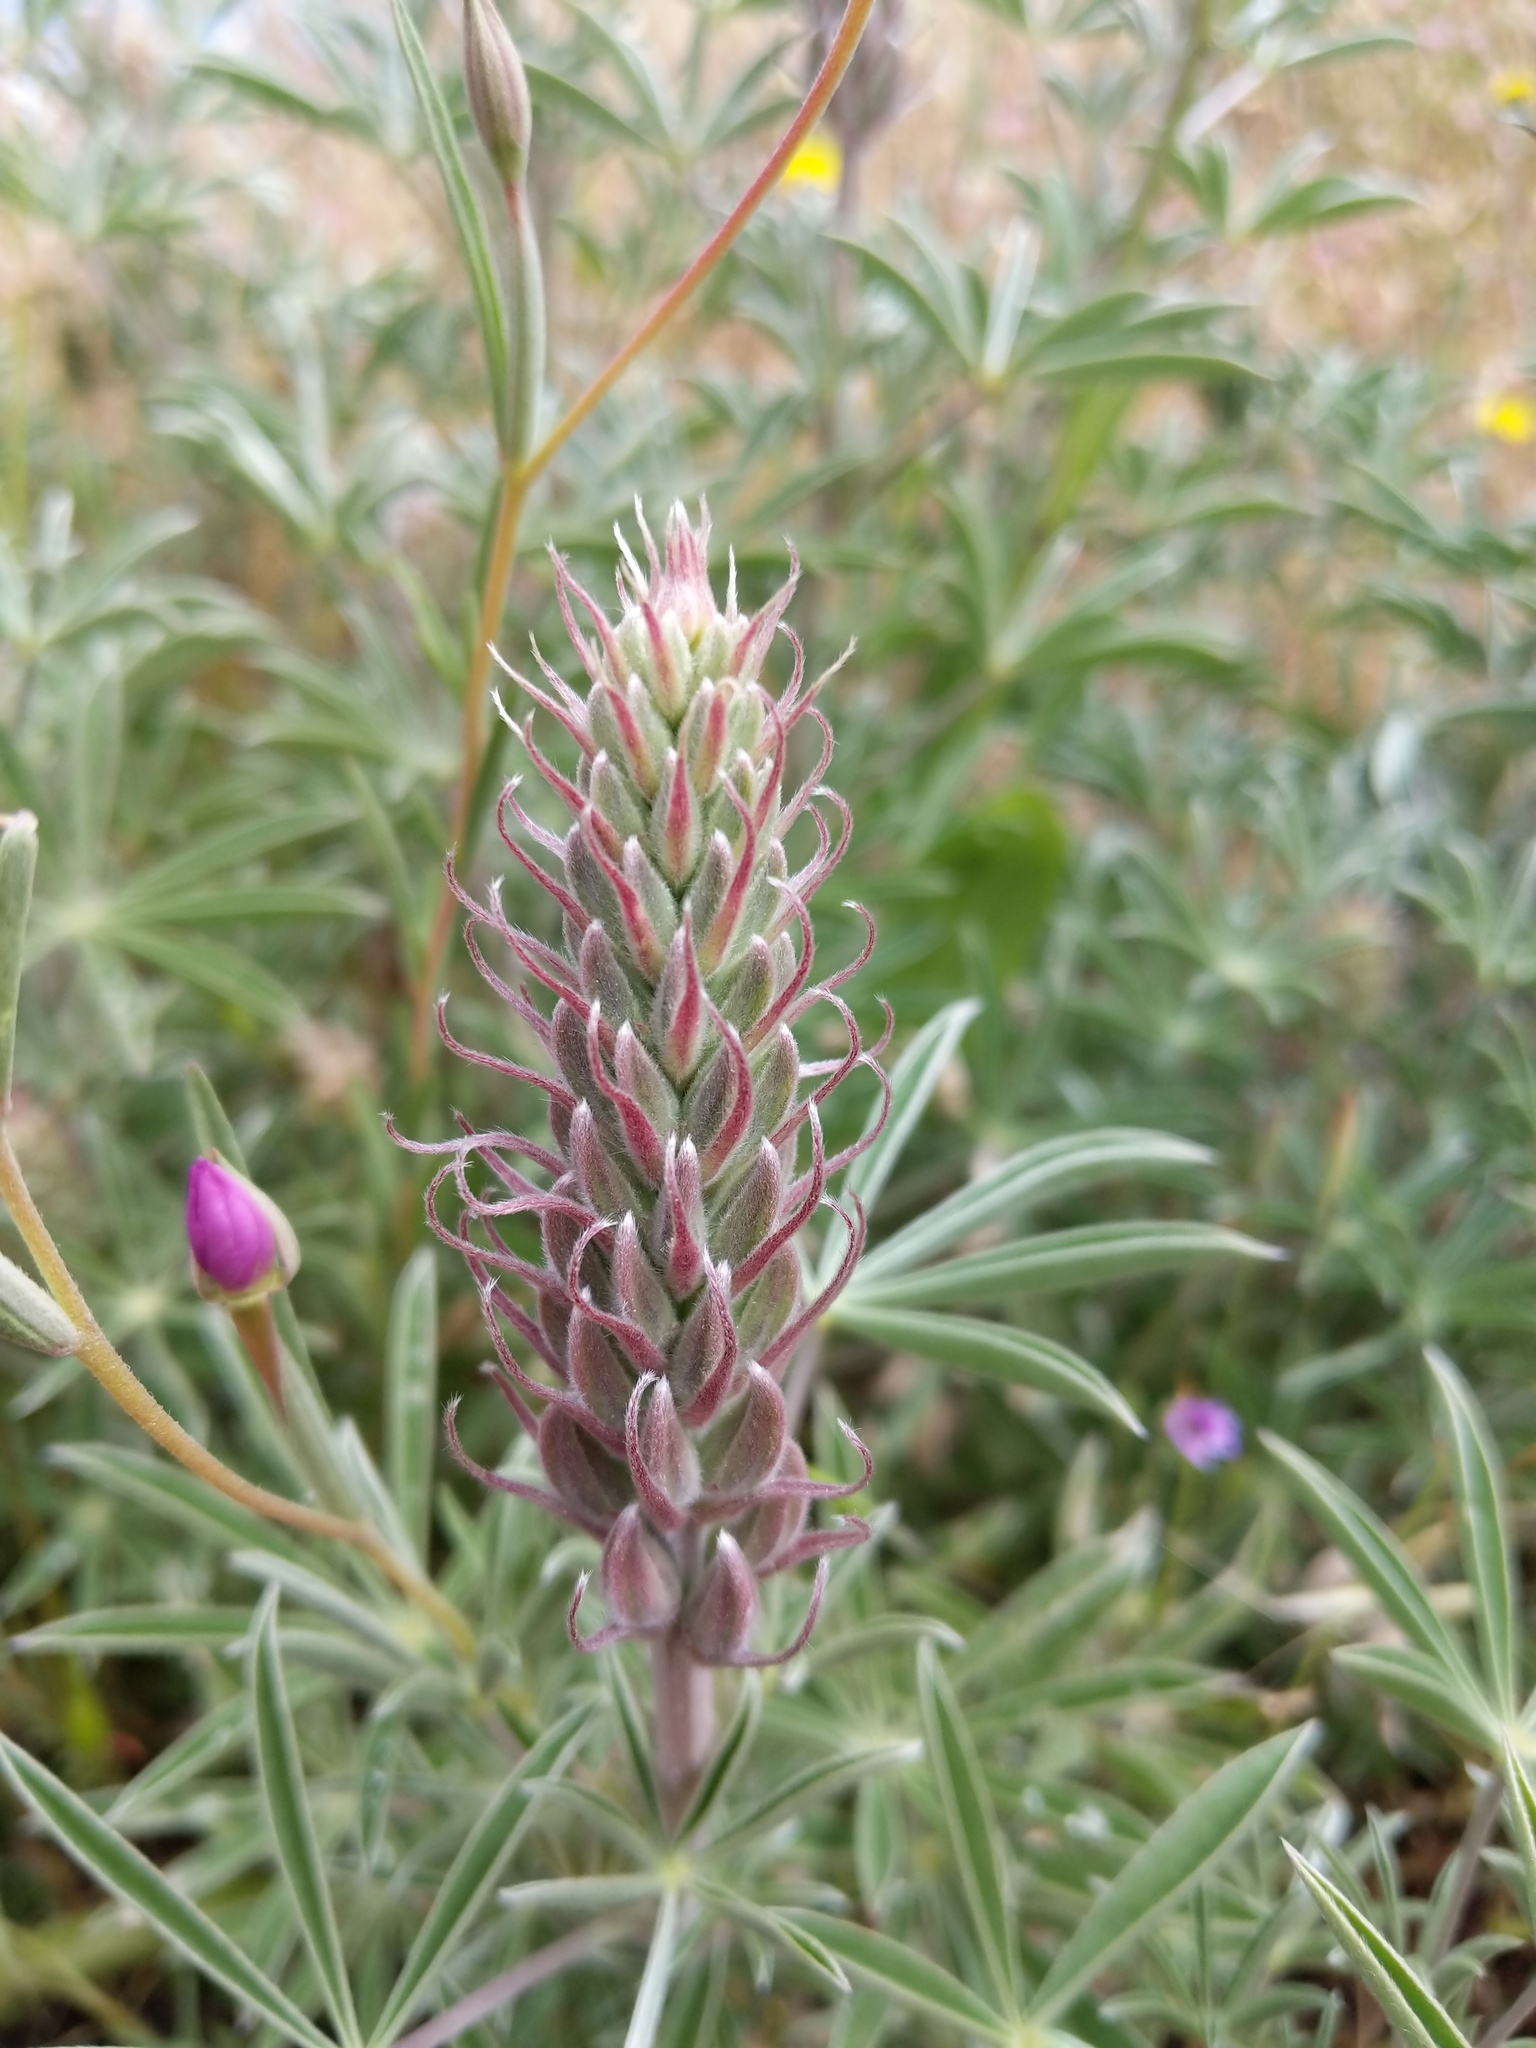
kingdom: Plantae
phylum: Tracheophyta
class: Magnoliopsida
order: Fabales
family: Fabaceae
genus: Lupinus
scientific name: Lupinus formosus
